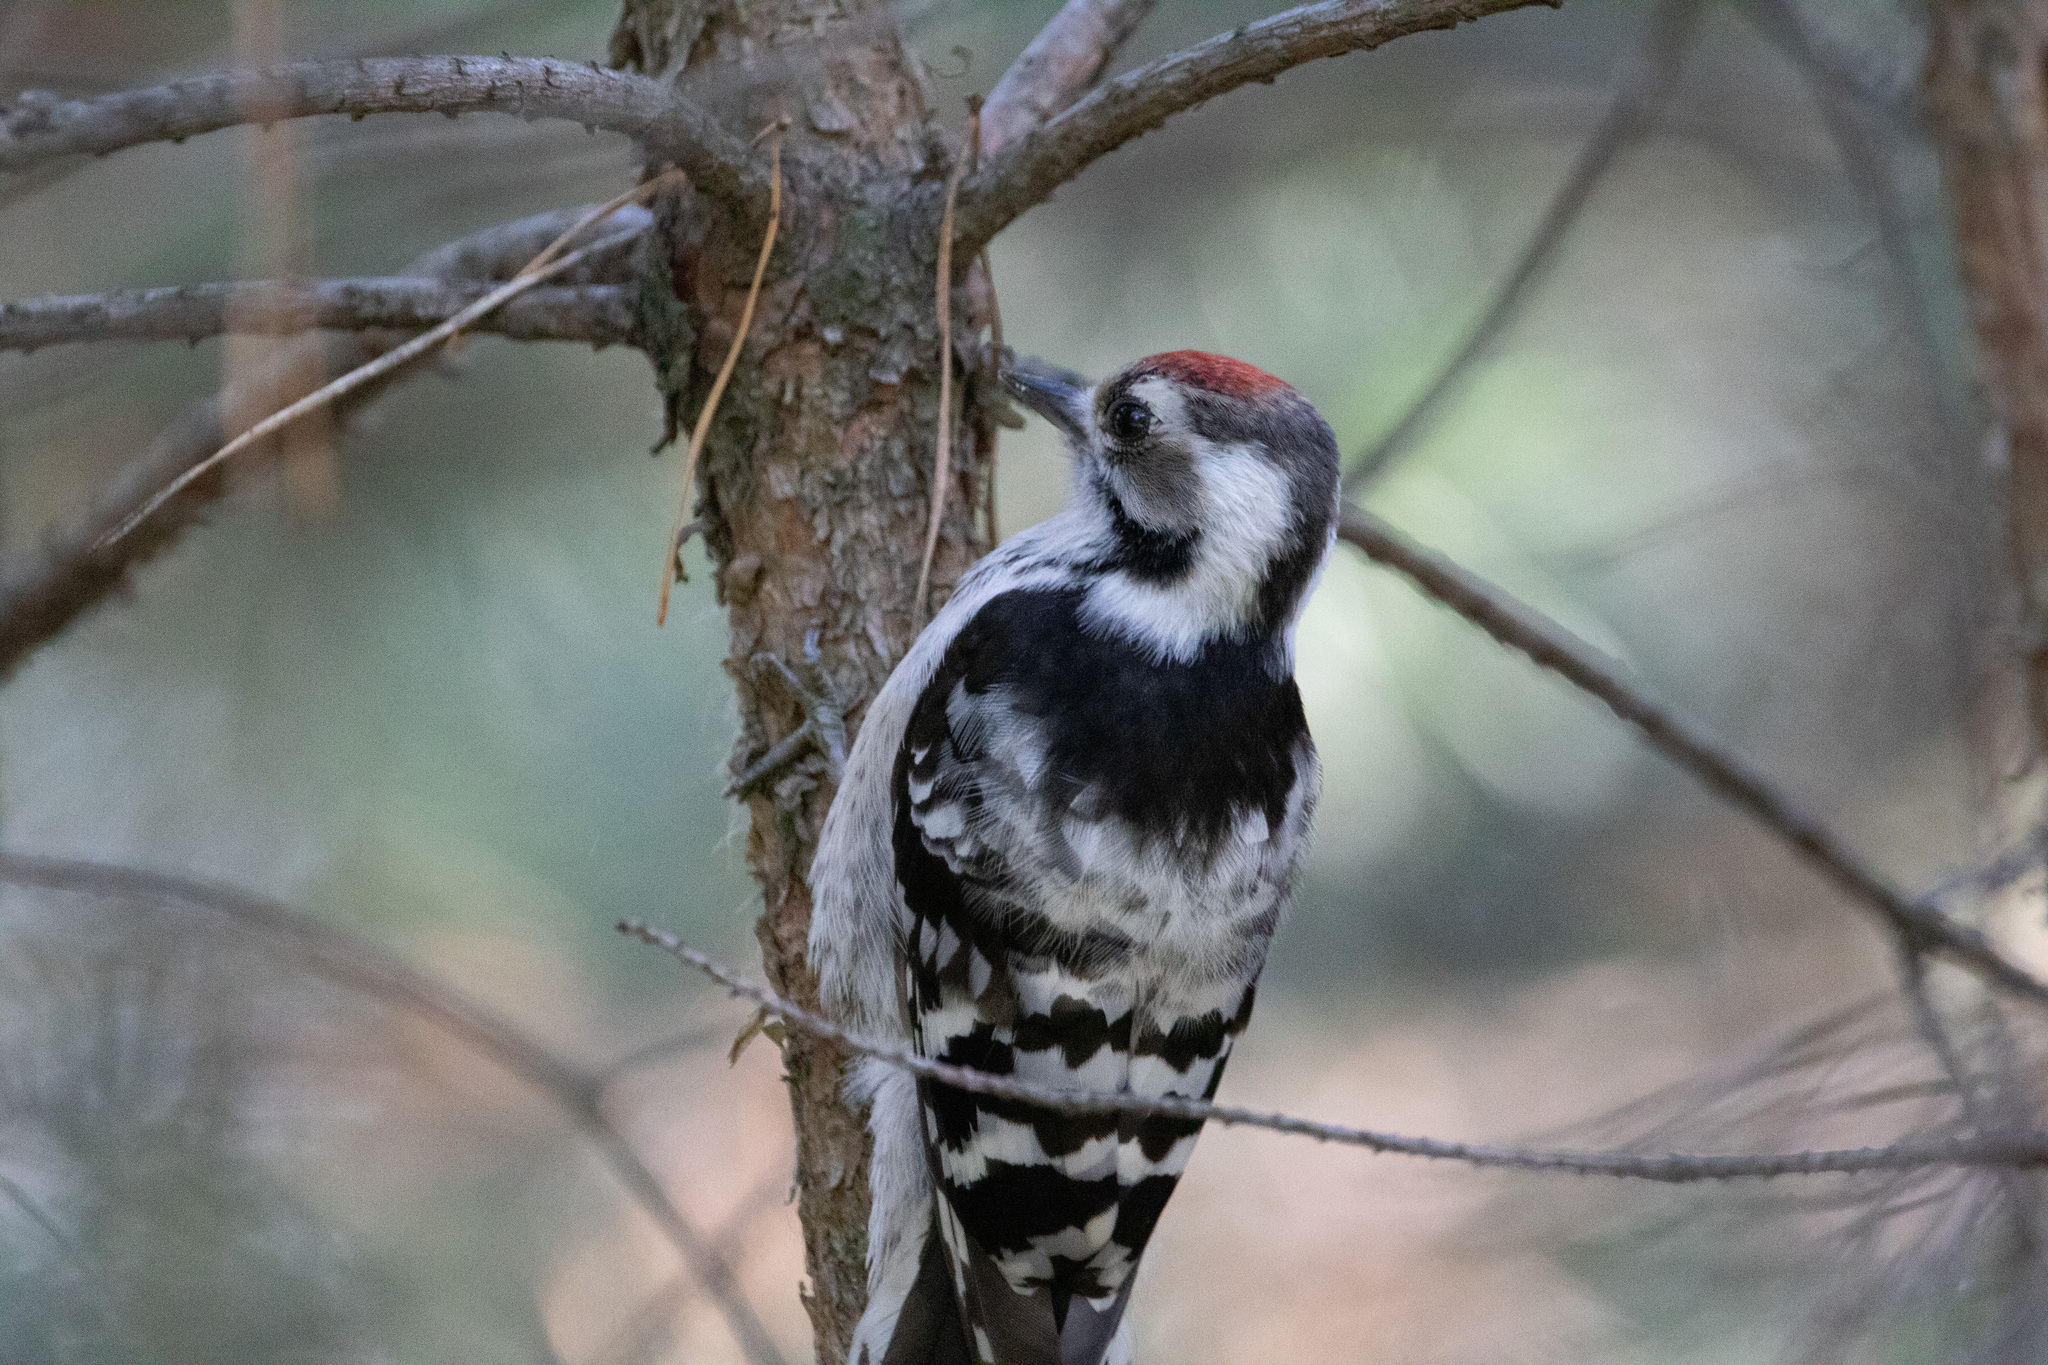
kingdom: Animalia
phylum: Chordata
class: Aves
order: Piciformes
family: Picidae
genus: Dryobates
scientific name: Dryobates minor
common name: Lesser spotted woodpecker
